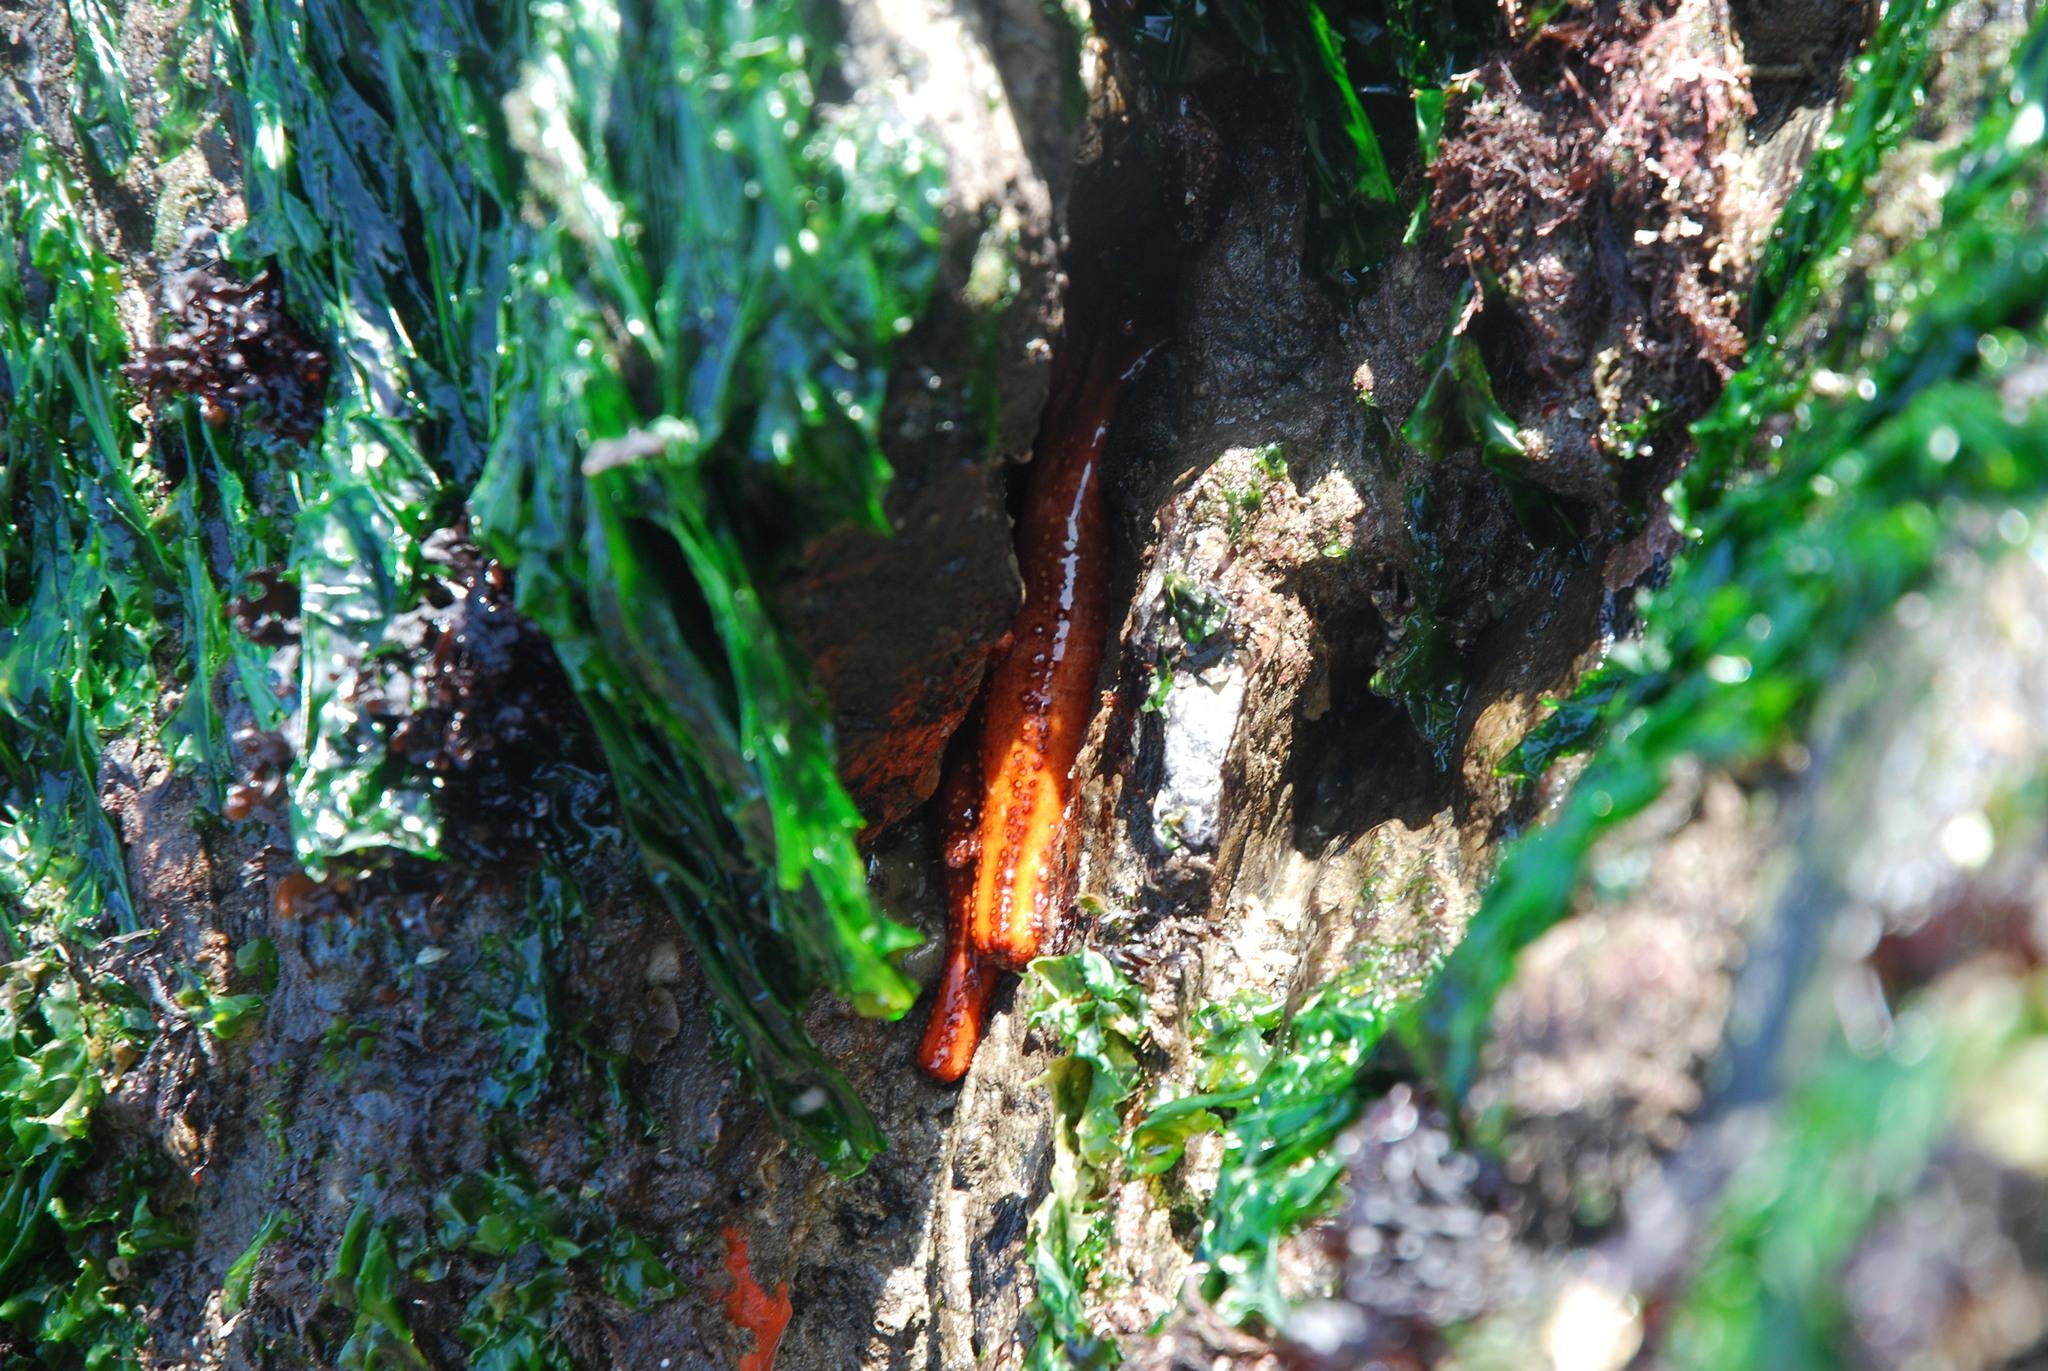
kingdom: Animalia
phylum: Echinodermata
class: Holothuroidea
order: Dendrochirotida
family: Cucumariidae
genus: Cucumaria
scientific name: Cucumaria miniata
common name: Orange sea cucumber
